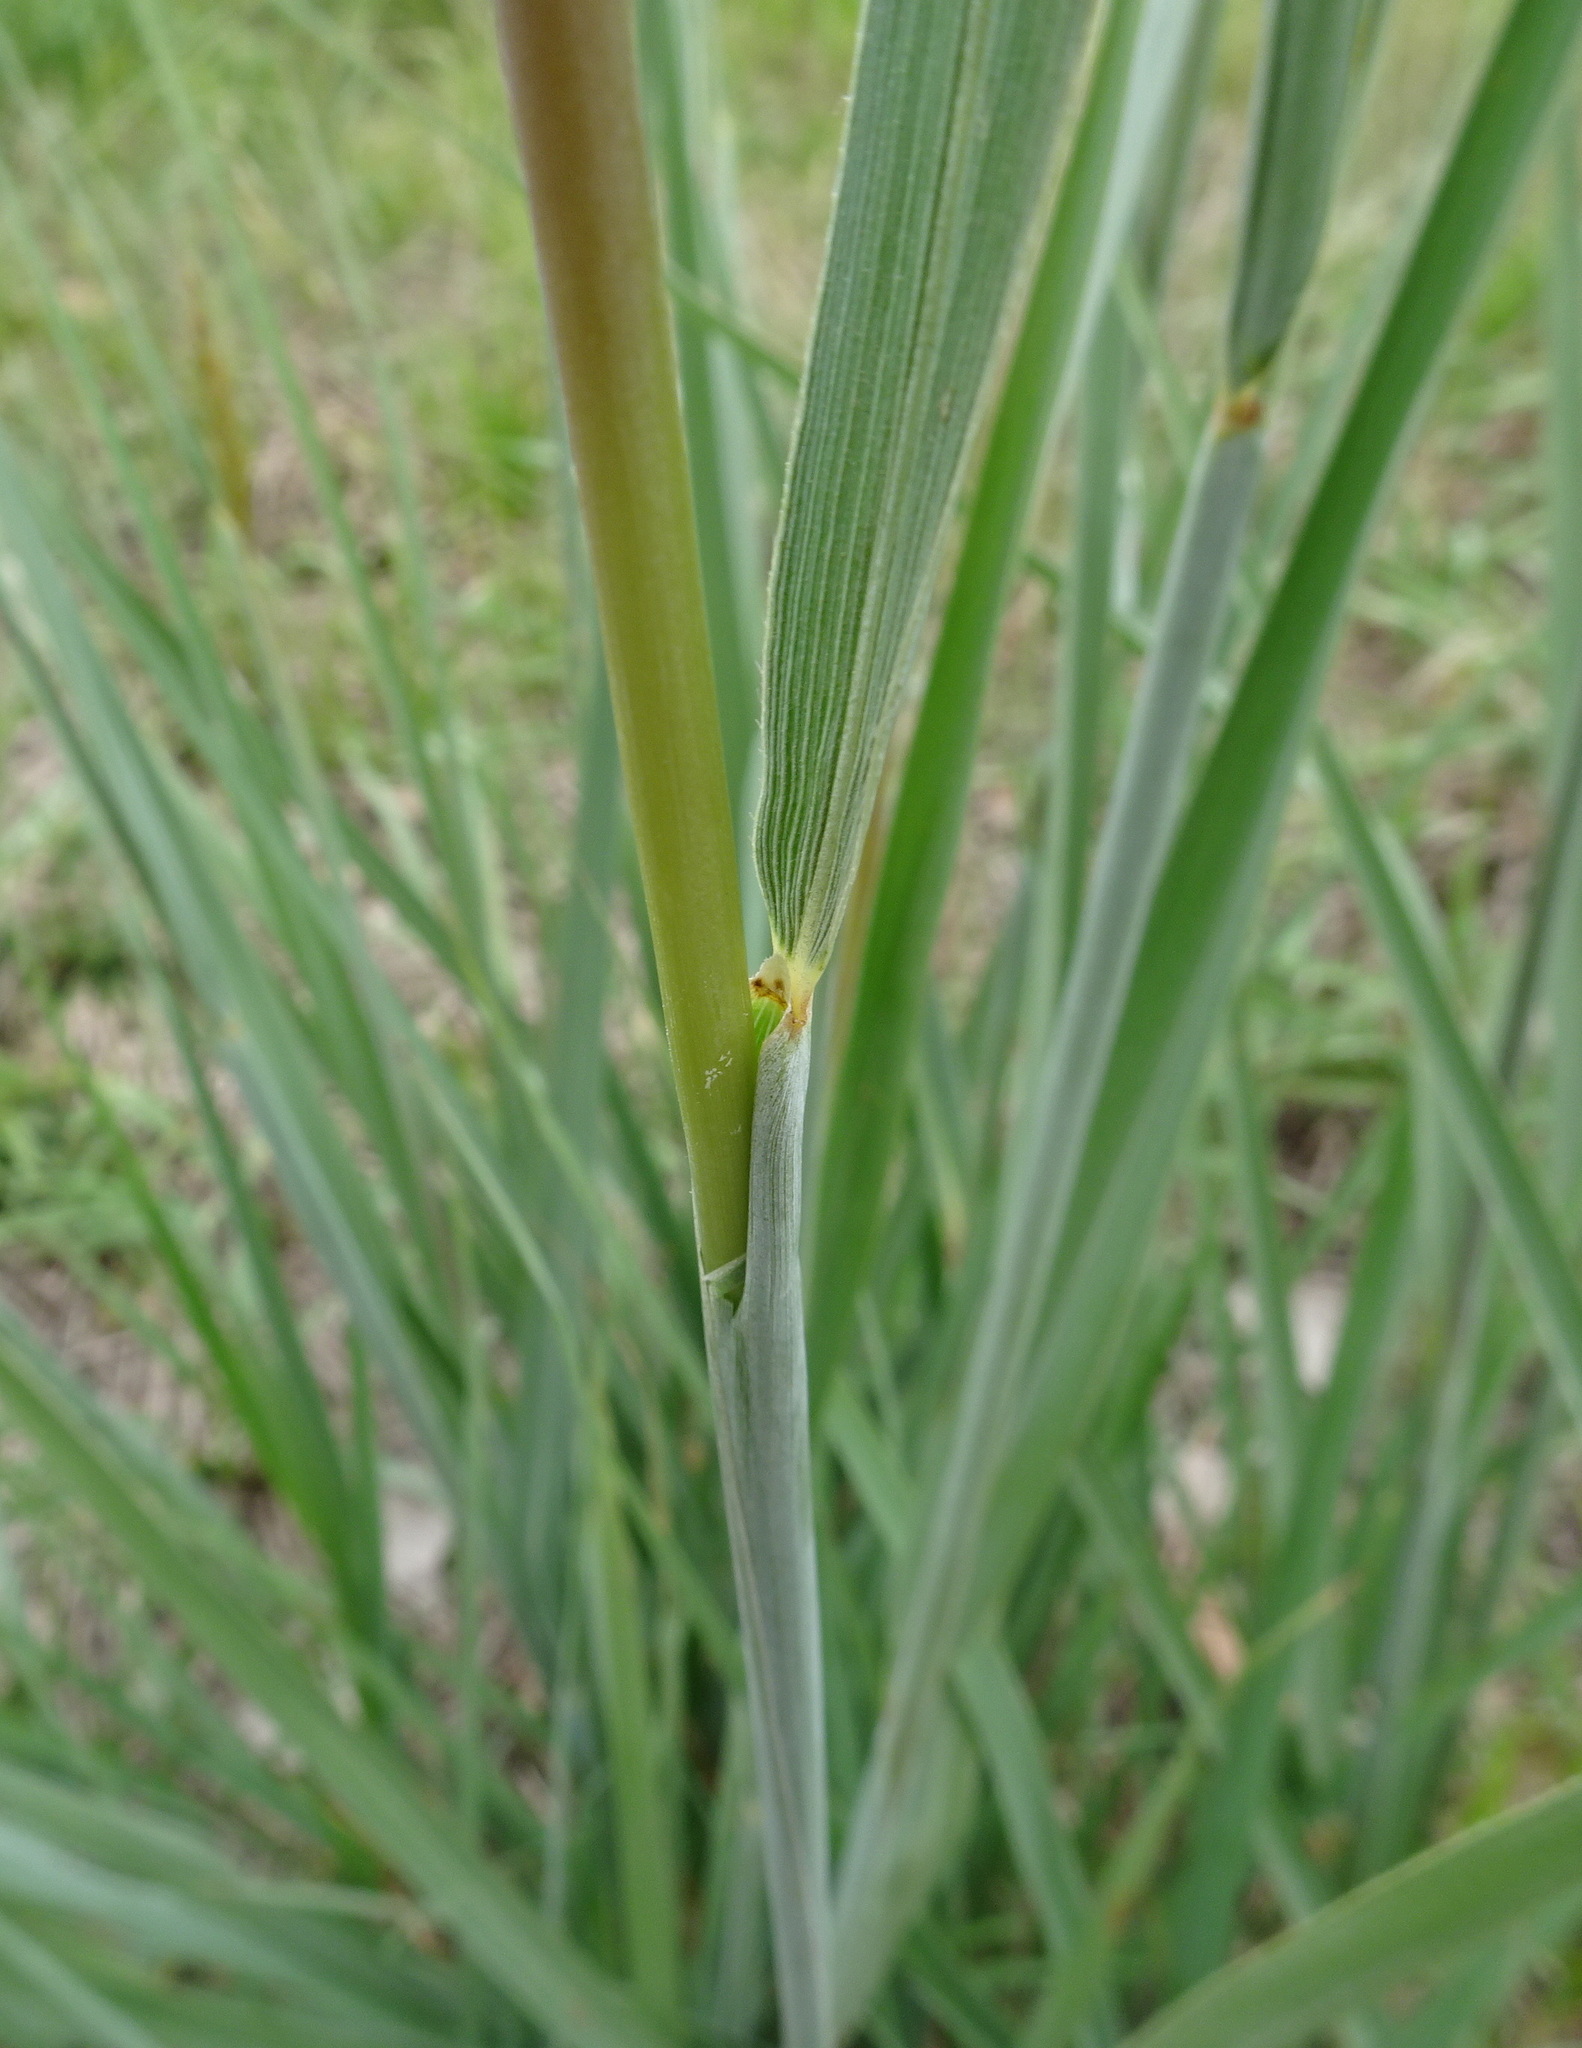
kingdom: Plantae
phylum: Tracheophyta
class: Liliopsida
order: Poales
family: Poaceae
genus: Andropogon
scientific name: Andropogon gerardi
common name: Big bluestem
